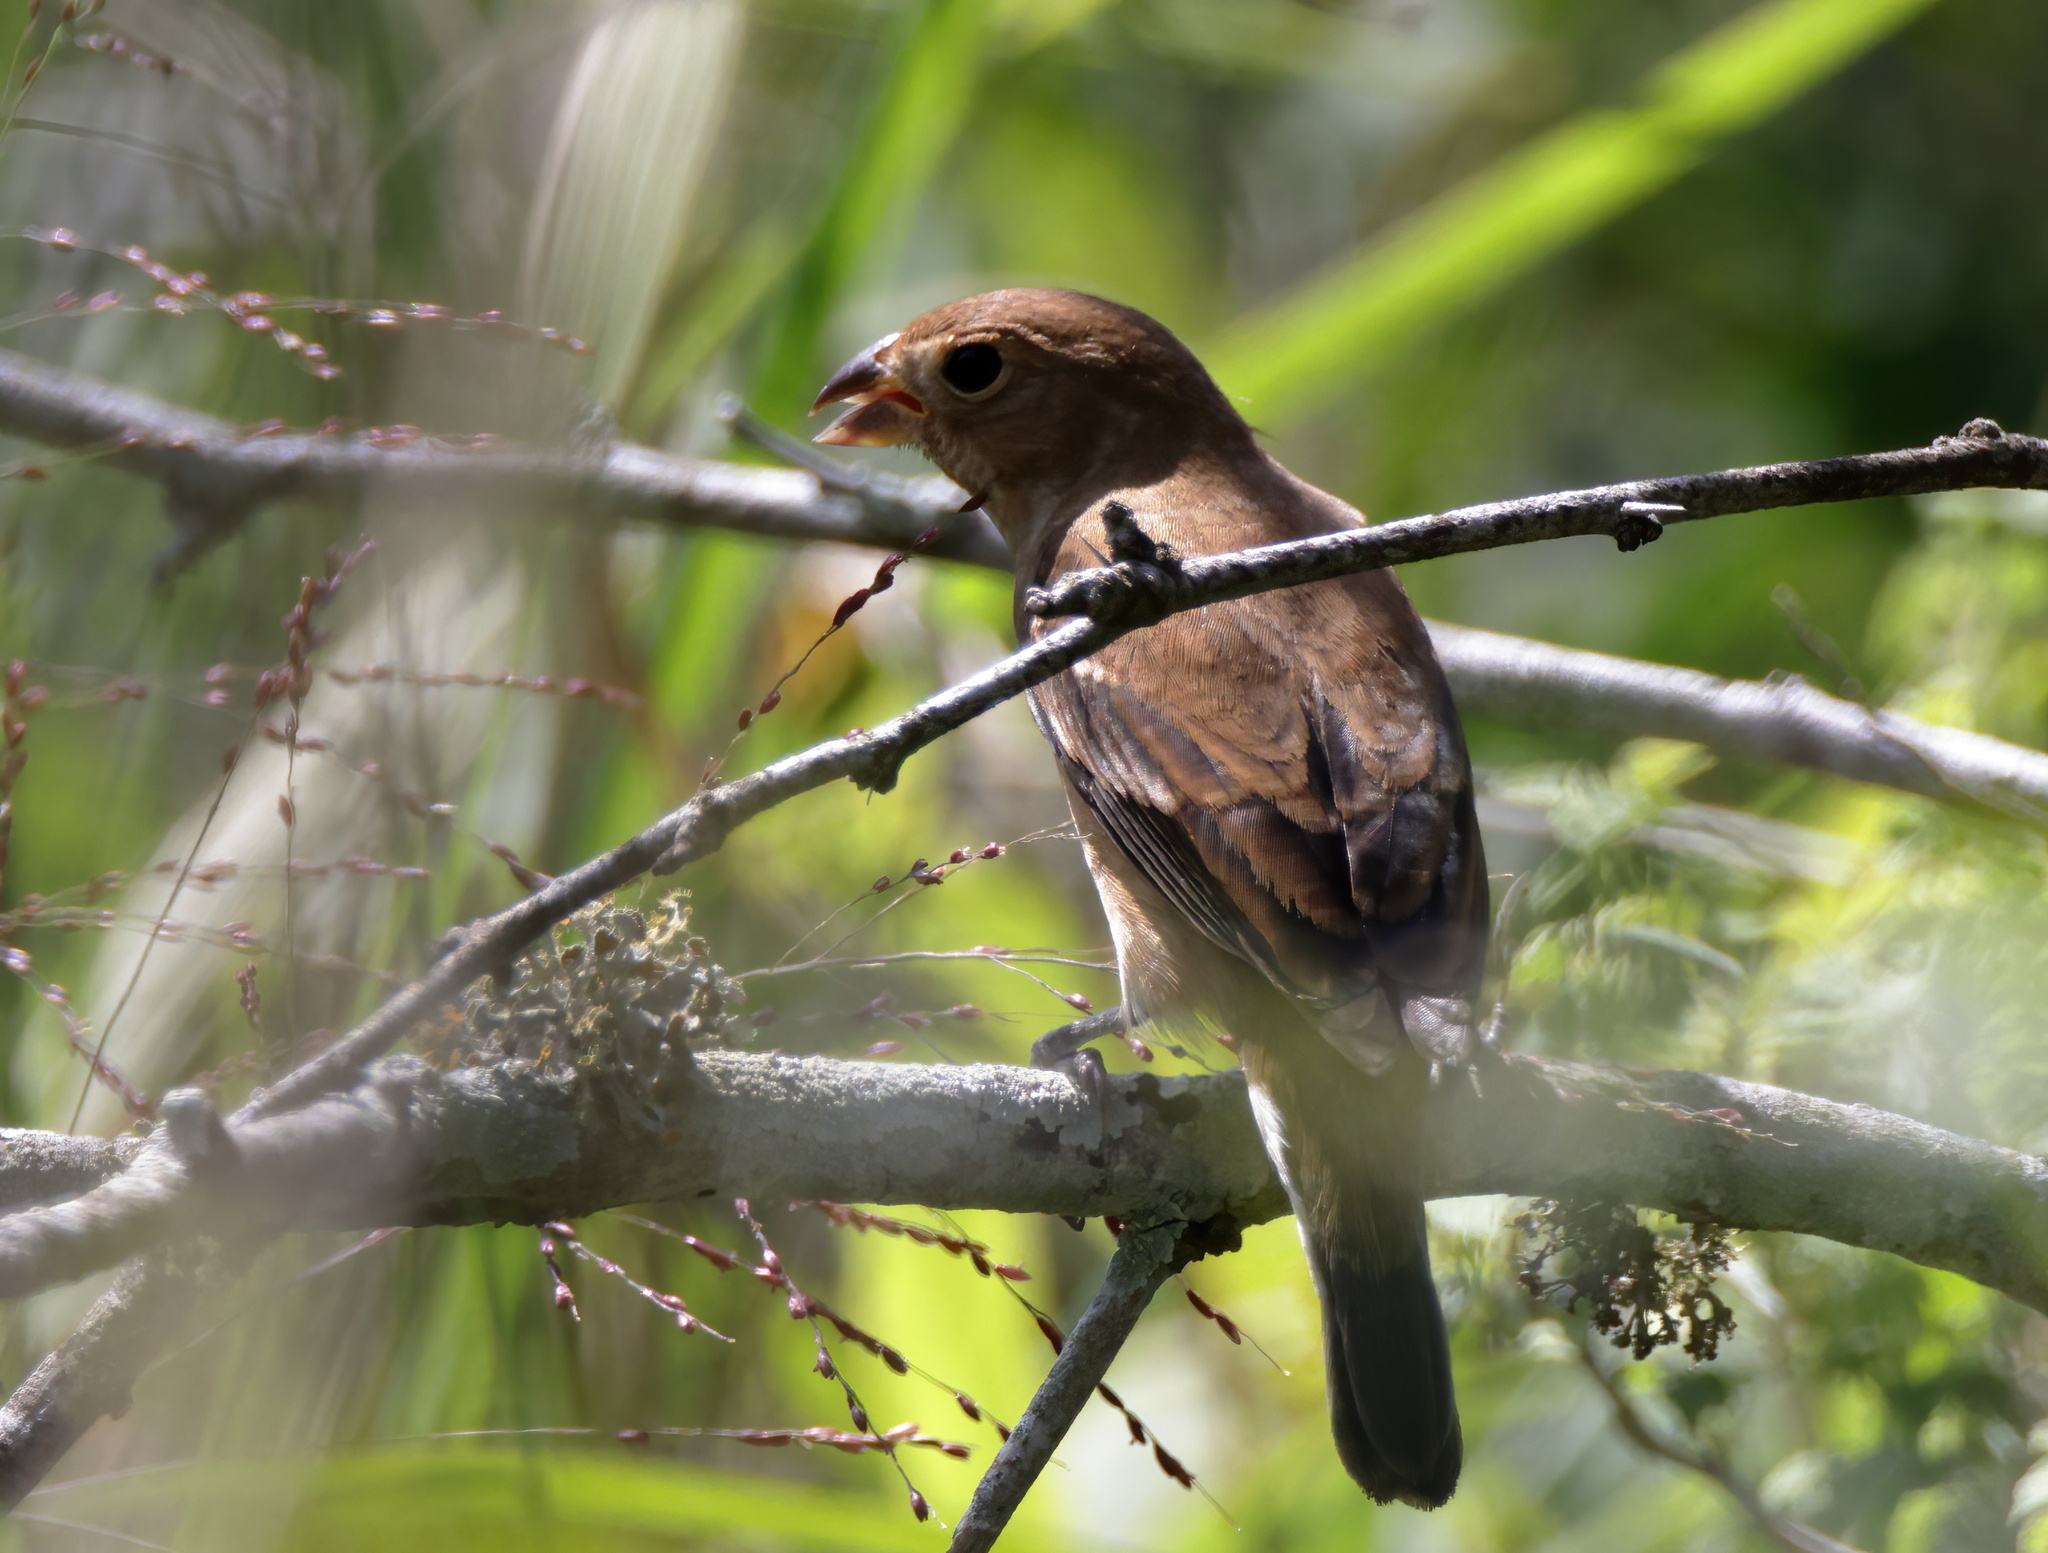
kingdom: Animalia
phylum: Chordata
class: Aves
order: Passeriformes
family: Cardinalidae
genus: Passerina
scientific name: Passerina cyanea
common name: Indigo bunting
